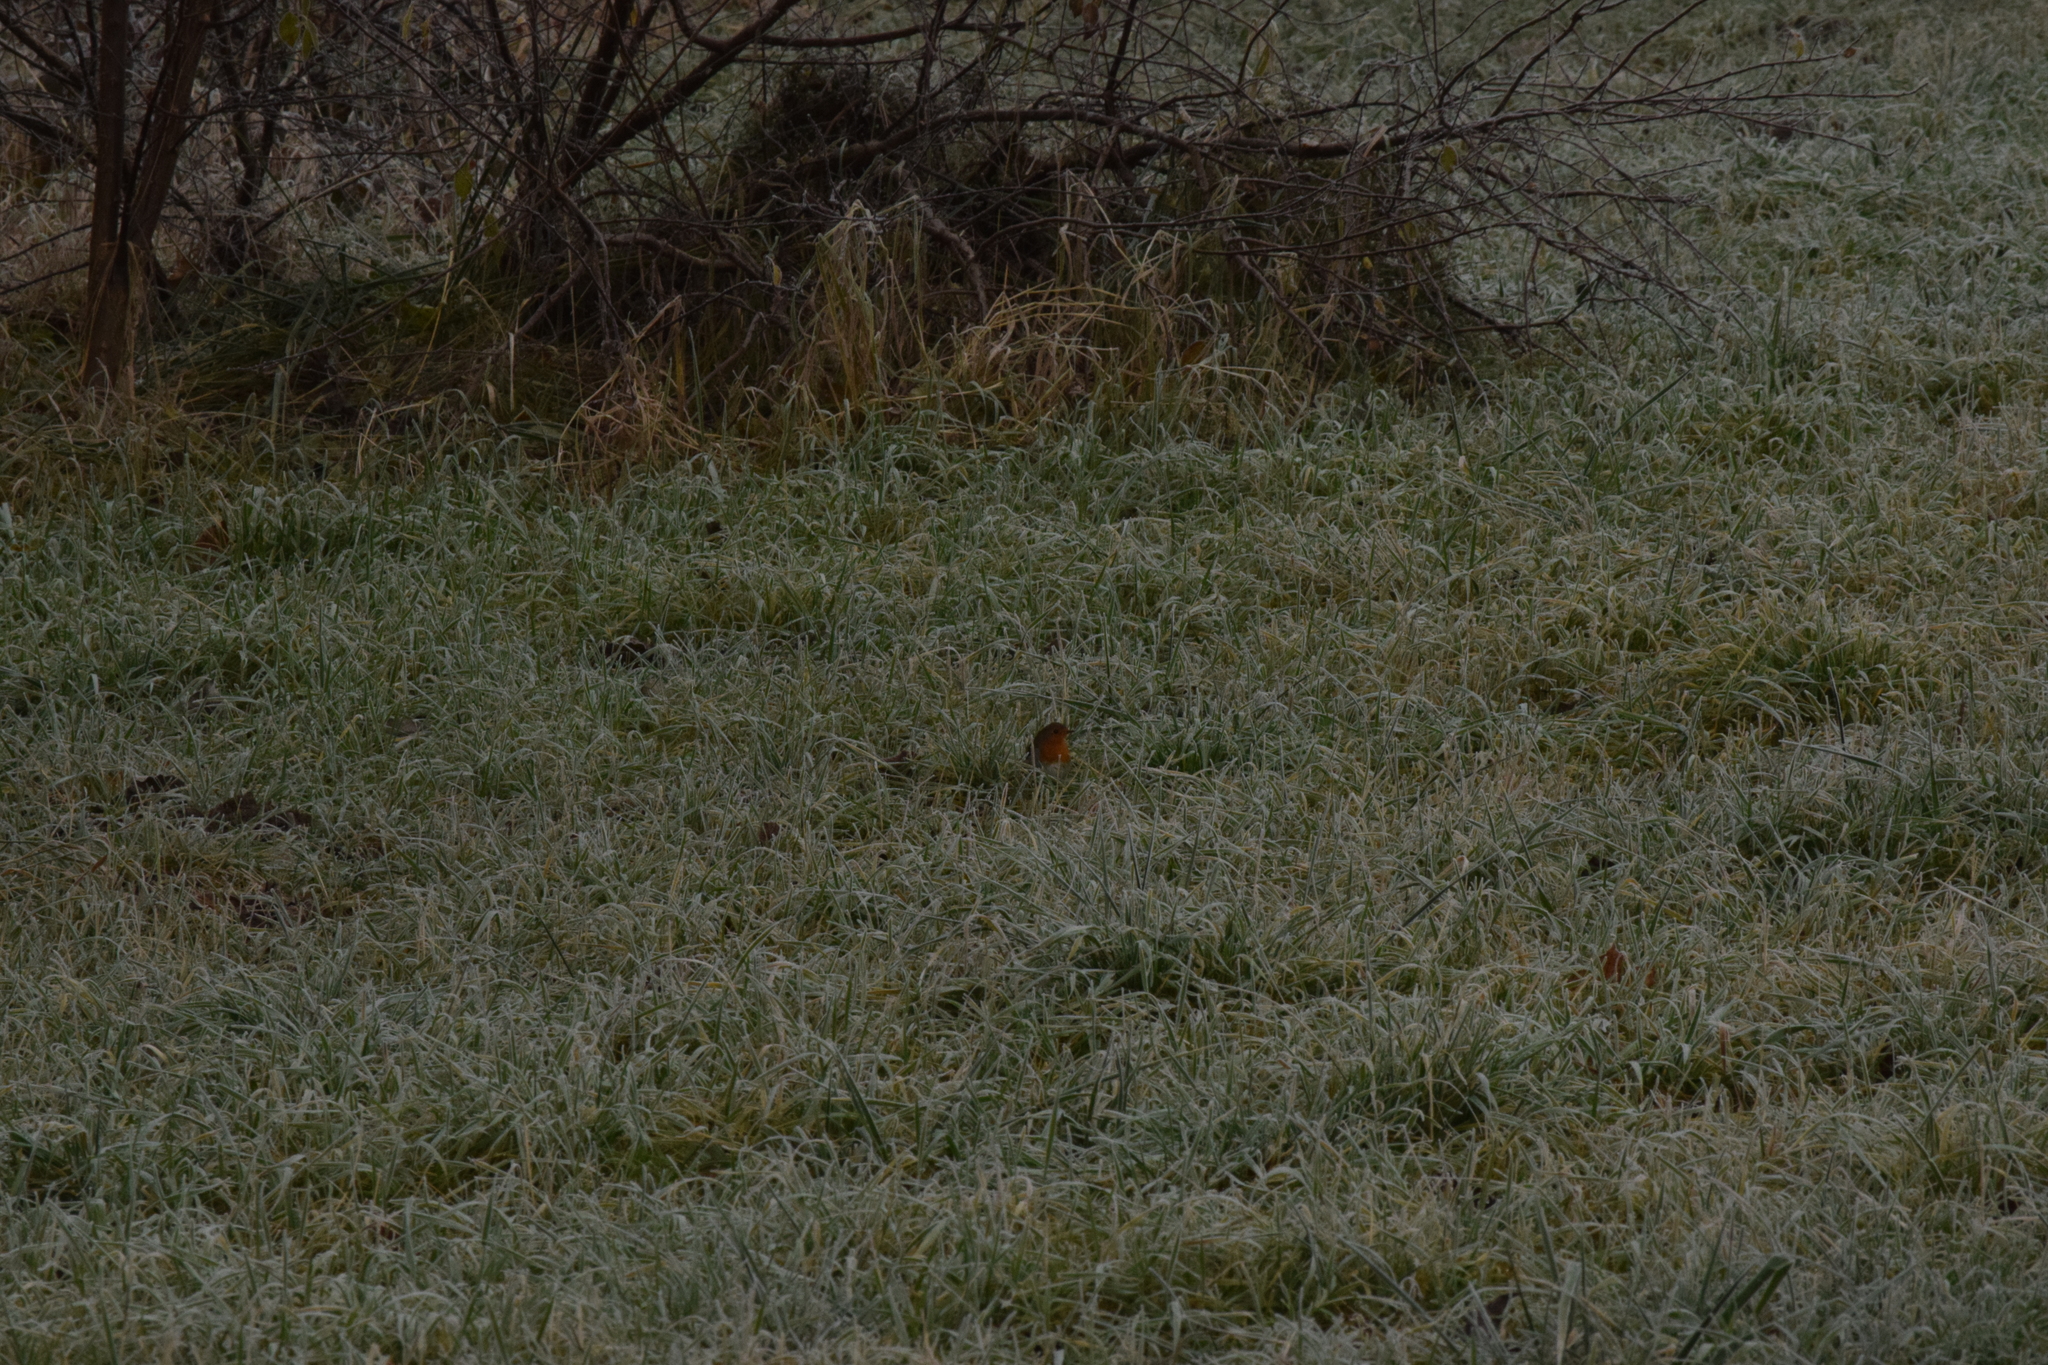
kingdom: Animalia
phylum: Chordata
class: Aves
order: Passeriformes
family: Muscicapidae
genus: Erithacus
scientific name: Erithacus rubecula
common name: European robin
